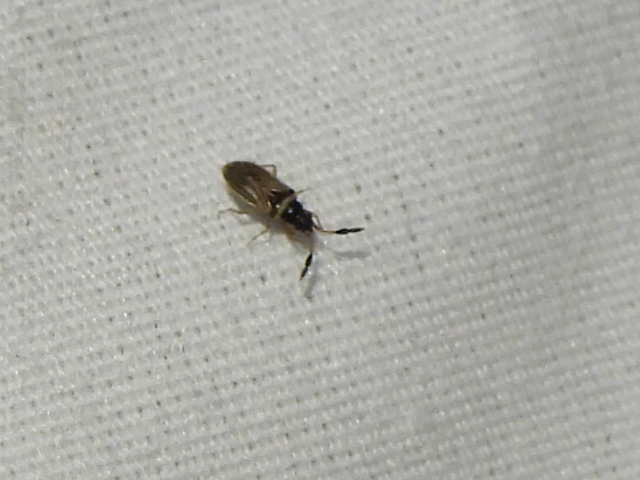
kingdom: Animalia
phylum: Arthropoda
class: Insecta
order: Hemiptera
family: Rhyparochromidae
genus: Ptochiomera
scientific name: Ptochiomera nodosa
